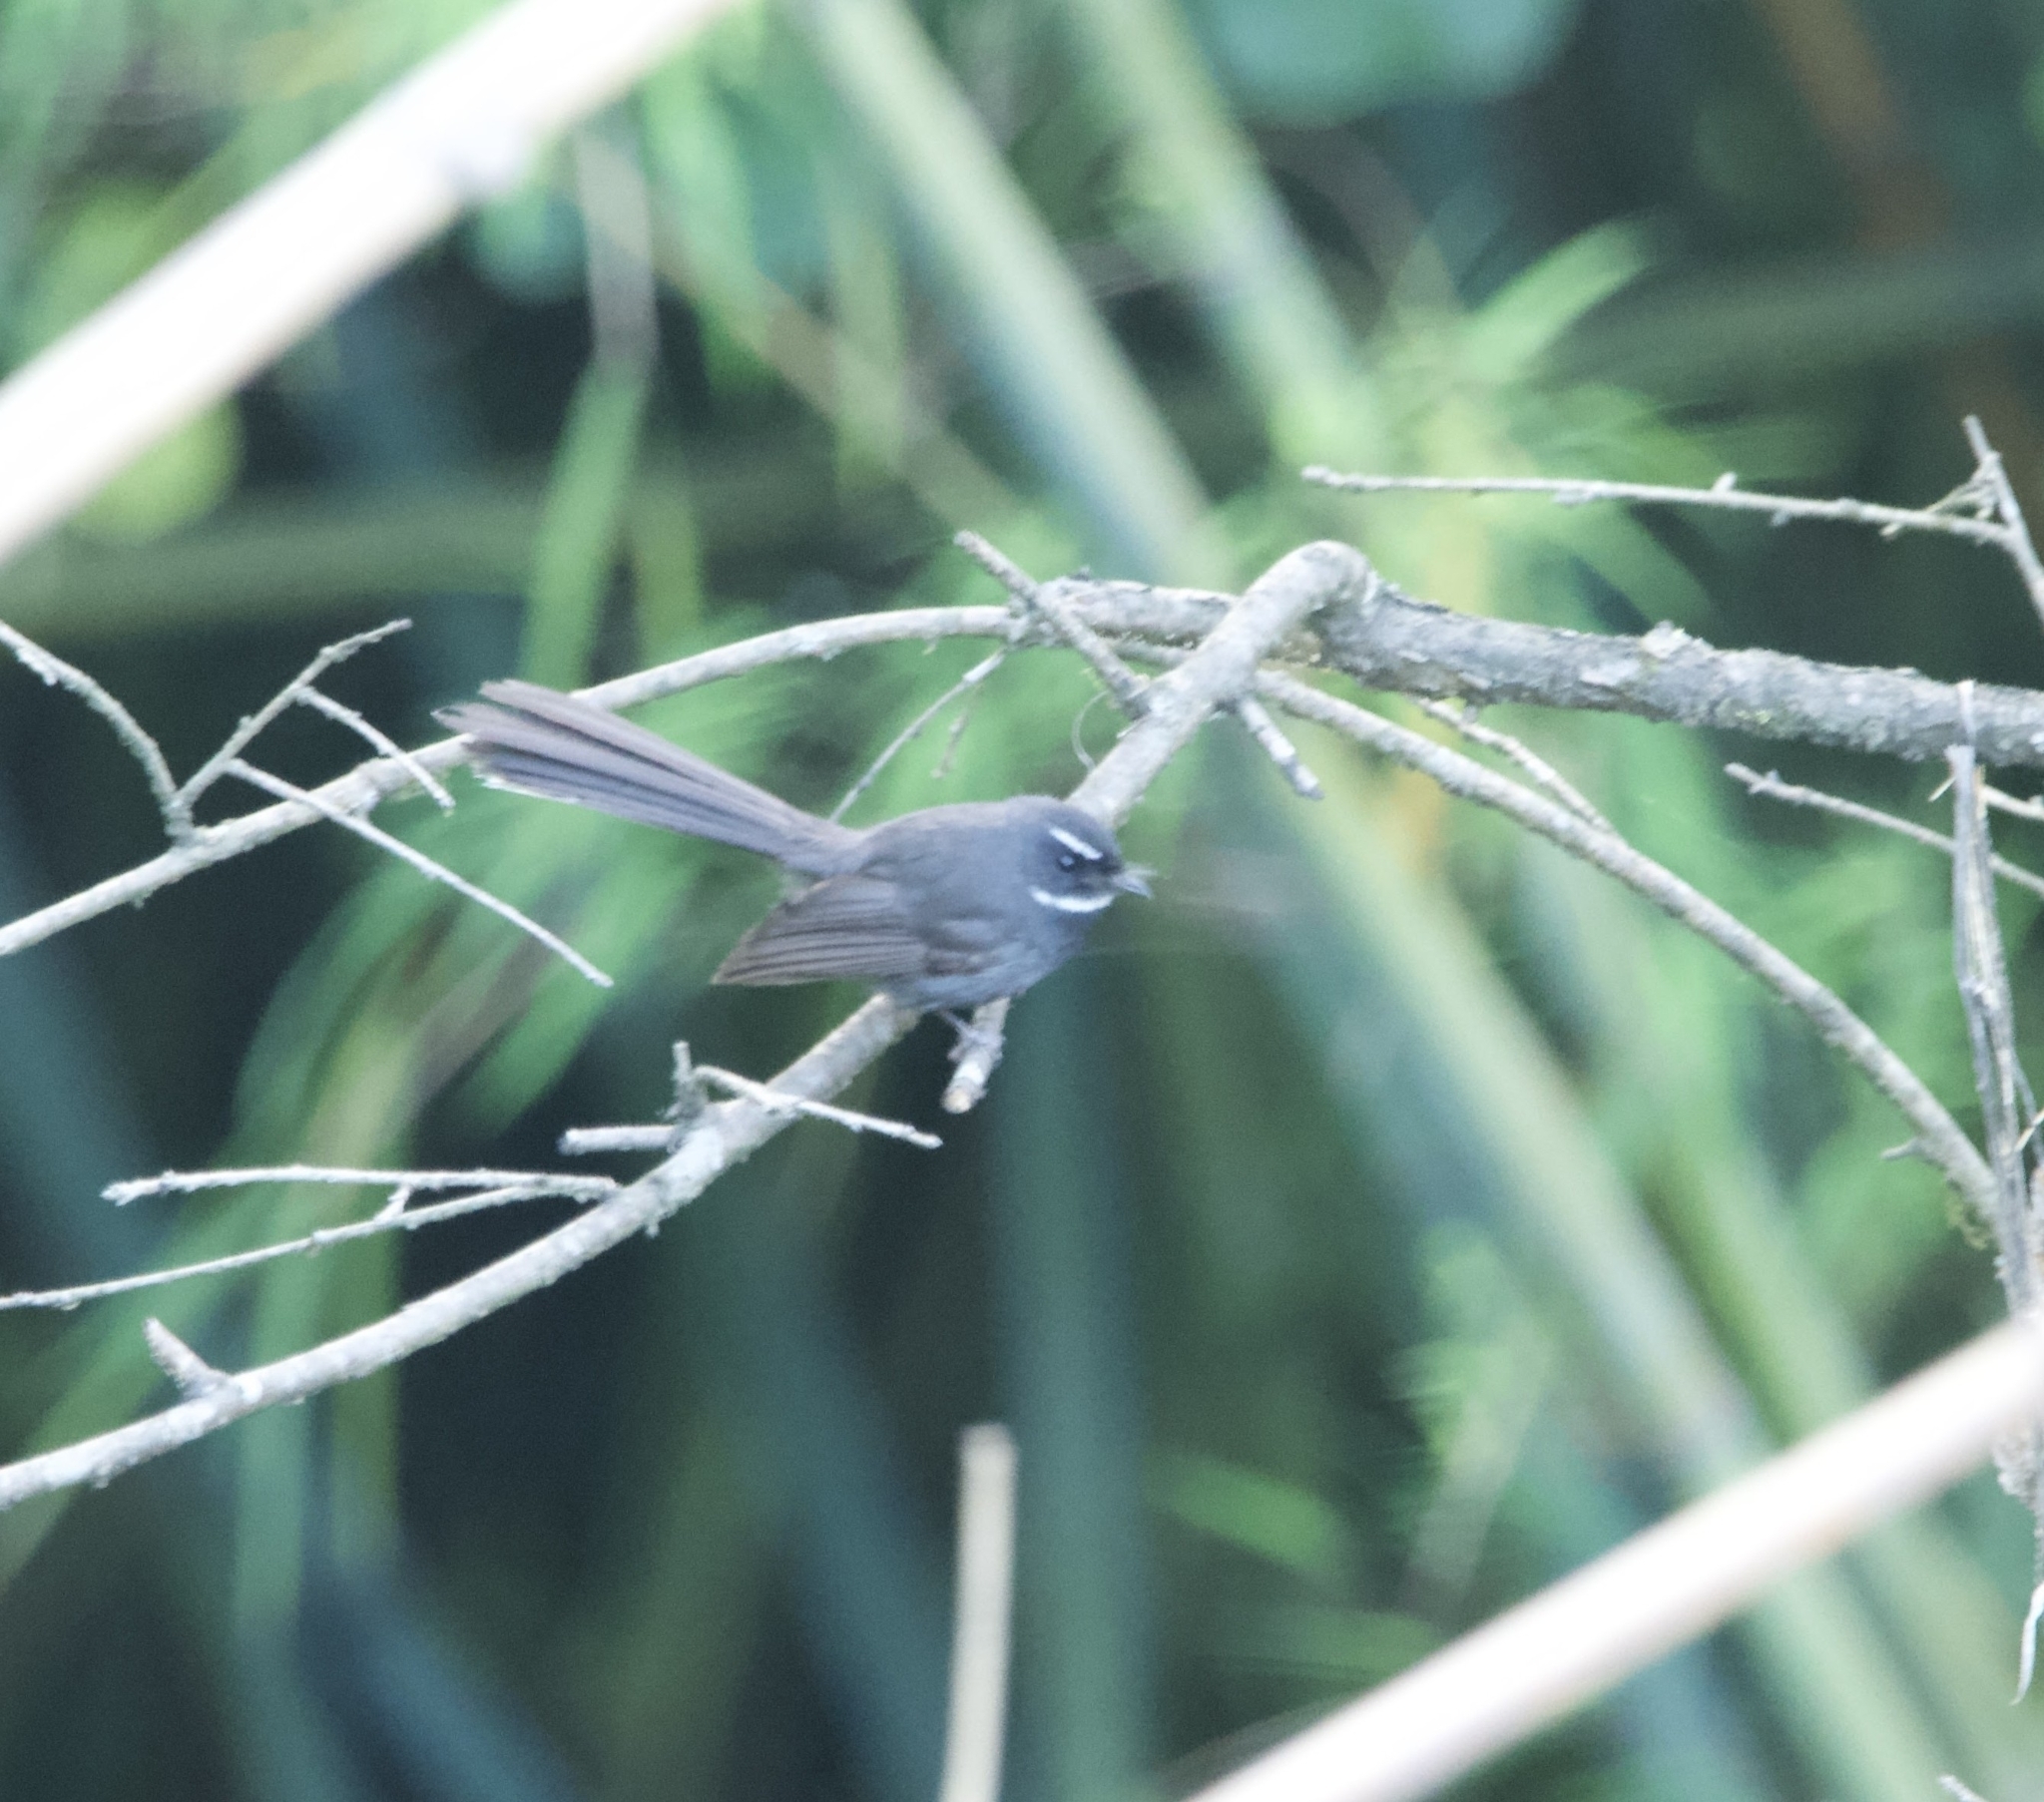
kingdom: Animalia
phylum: Chordata
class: Aves
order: Passeriformes
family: Rhipiduridae
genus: Rhipidura
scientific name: Rhipidura albicollis
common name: White-throated fantail
